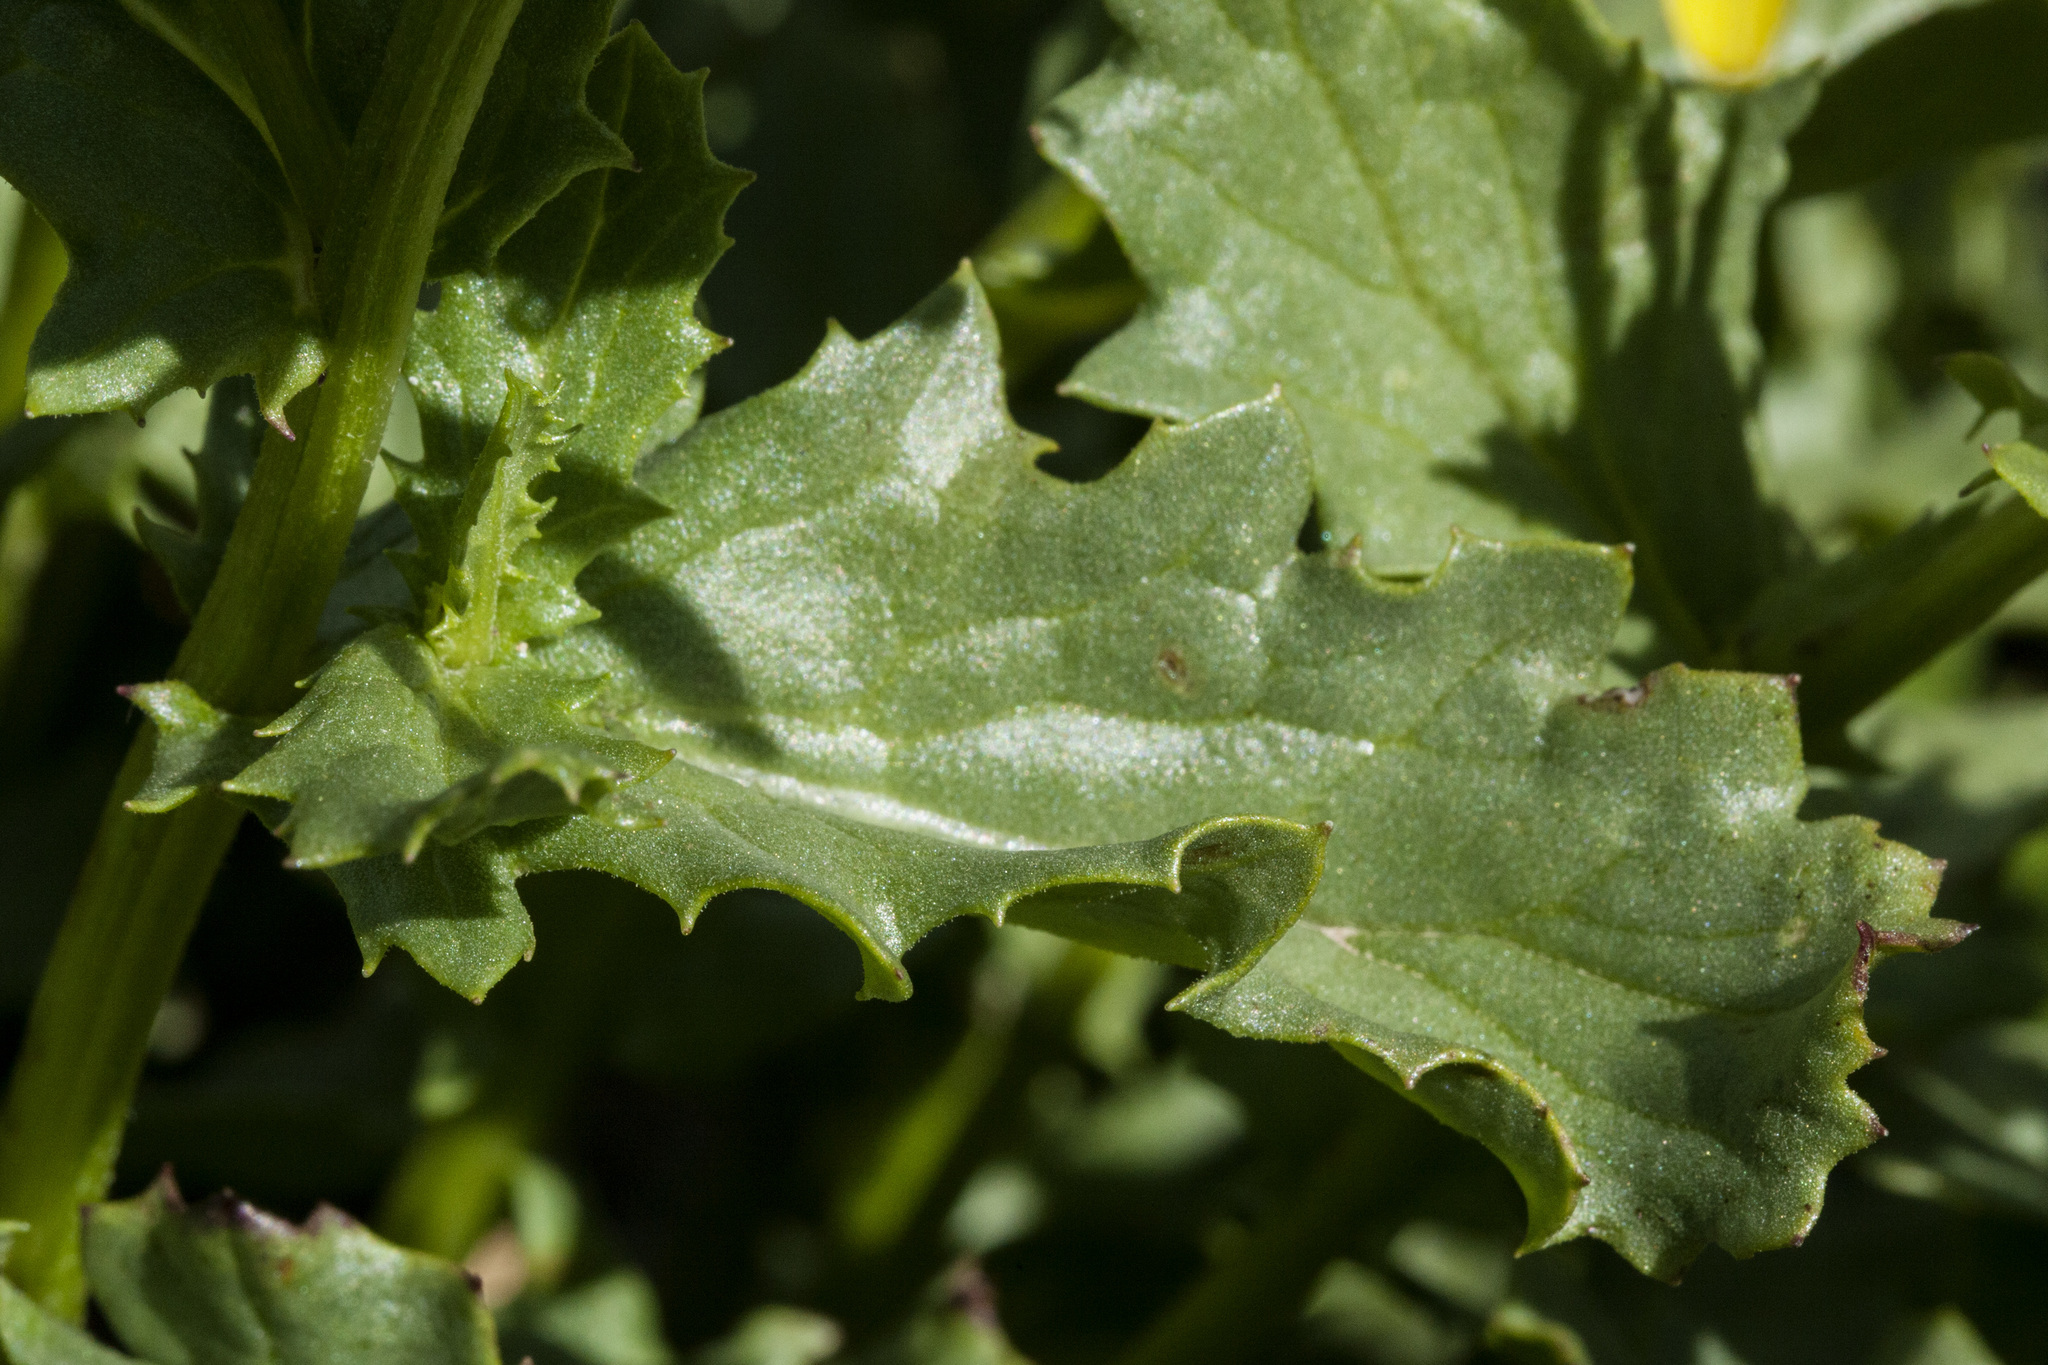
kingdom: Plantae
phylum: Tracheophyta
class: Magnoliopsida
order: Asterales
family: Asteraceae
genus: Senecio
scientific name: Senecio blitoides
